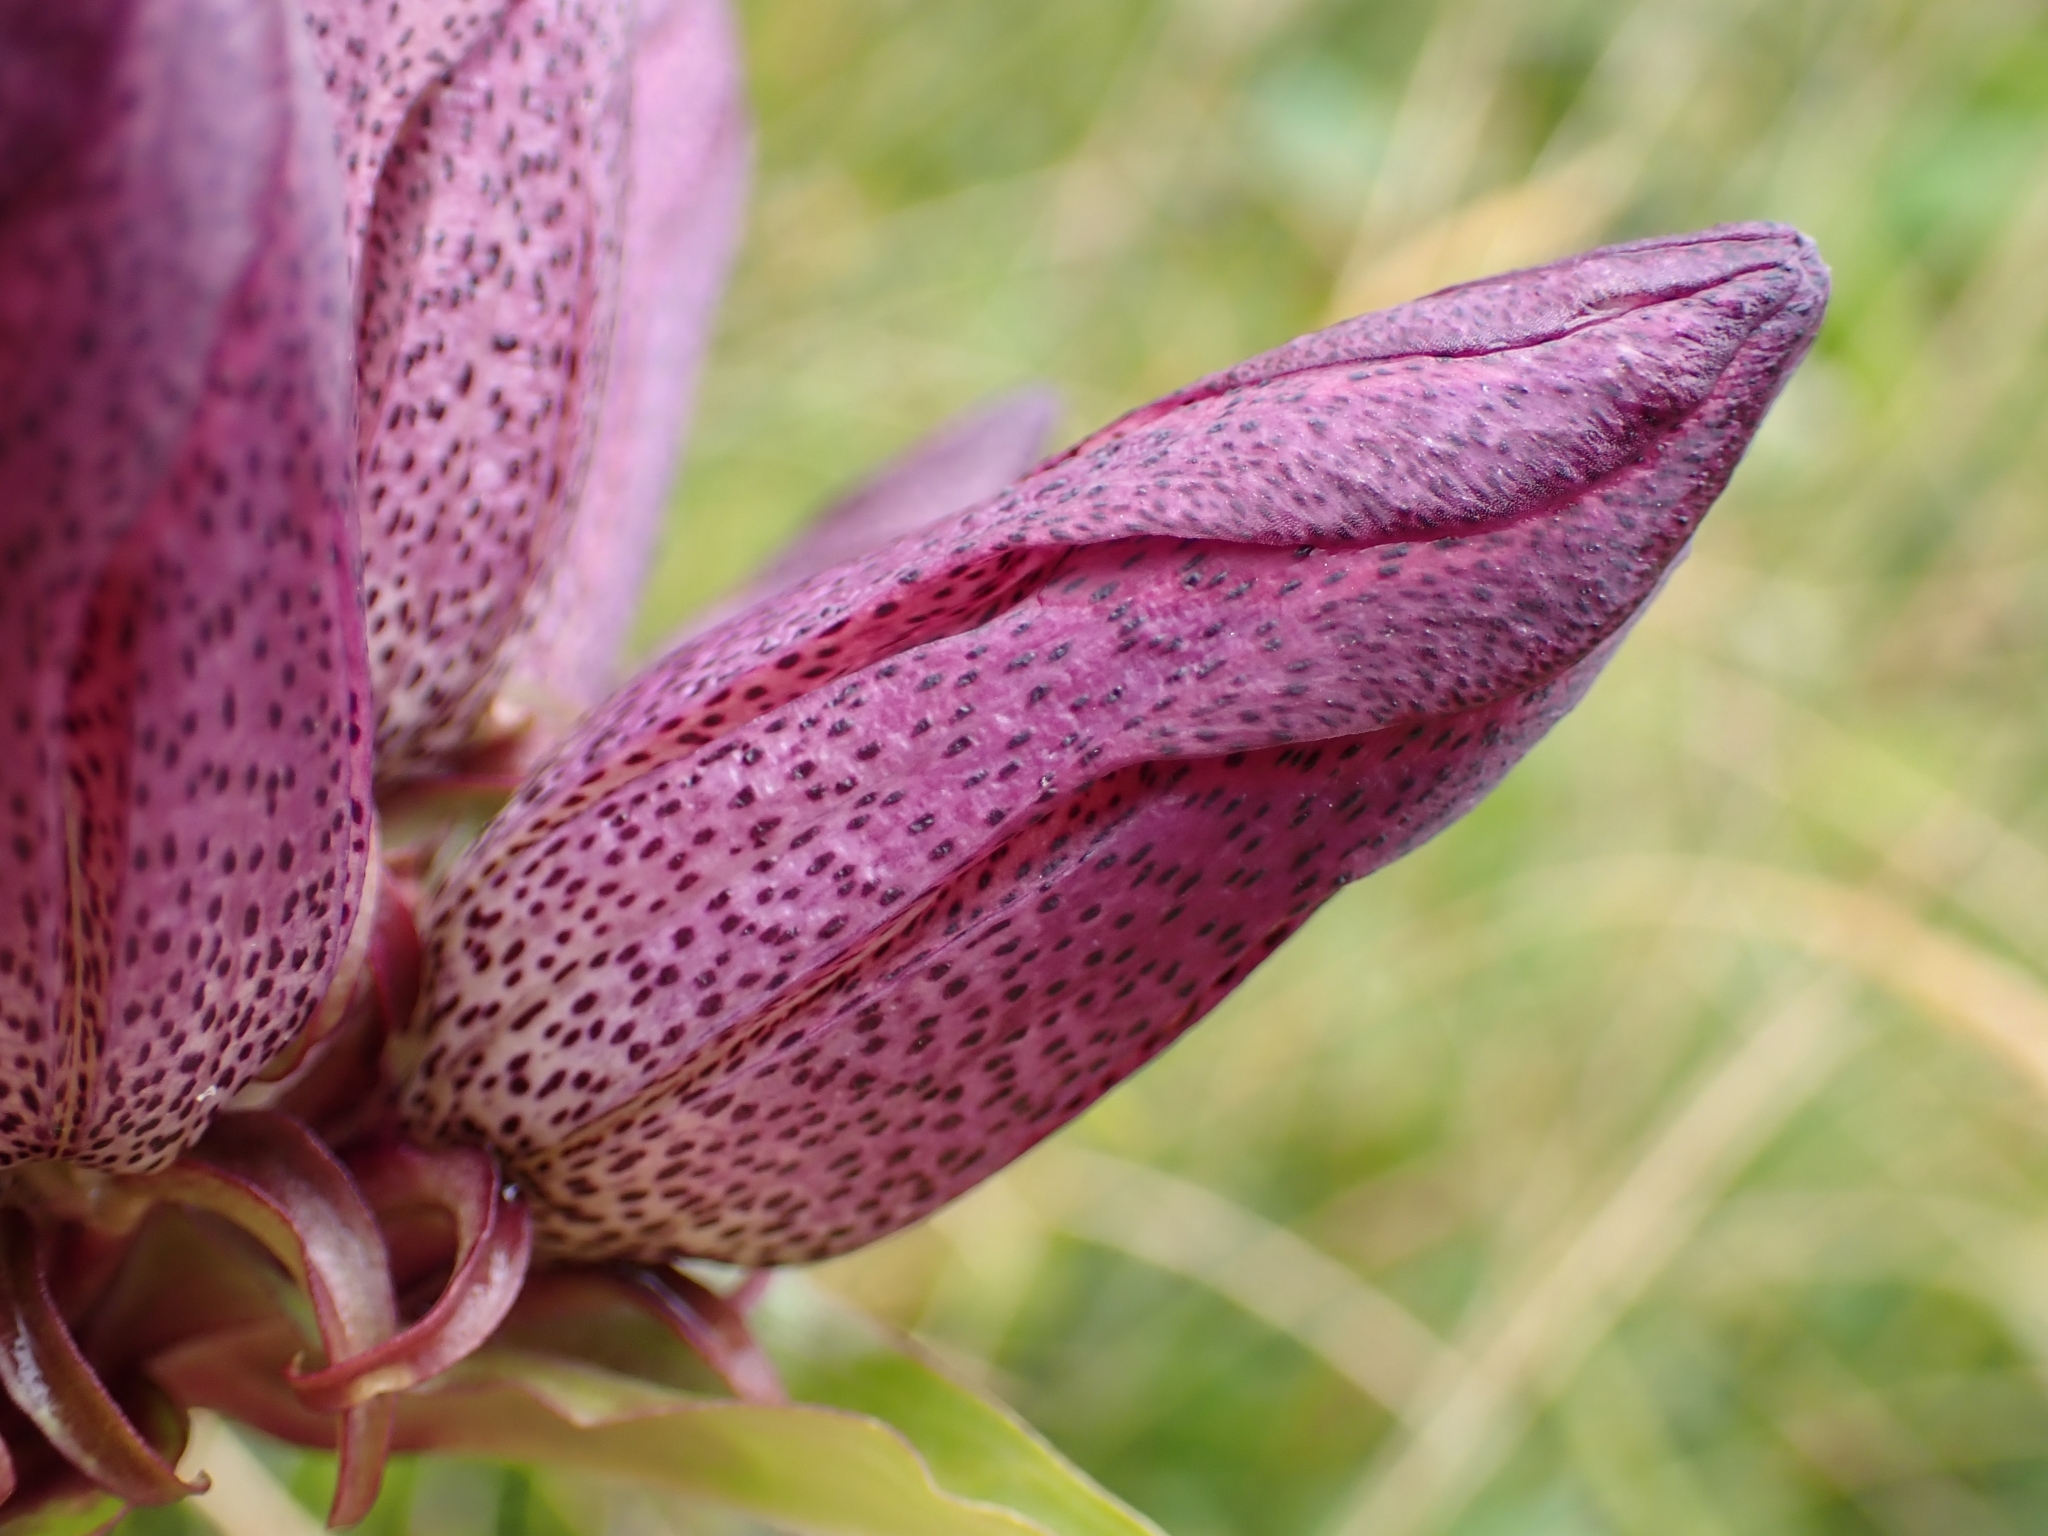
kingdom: Plantae
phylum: Tracheophyta
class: Magnoliopsida
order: Gentianales
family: Gentianaceae
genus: Gentiana
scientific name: Gentiana pannonica
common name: Hungarian gentian
